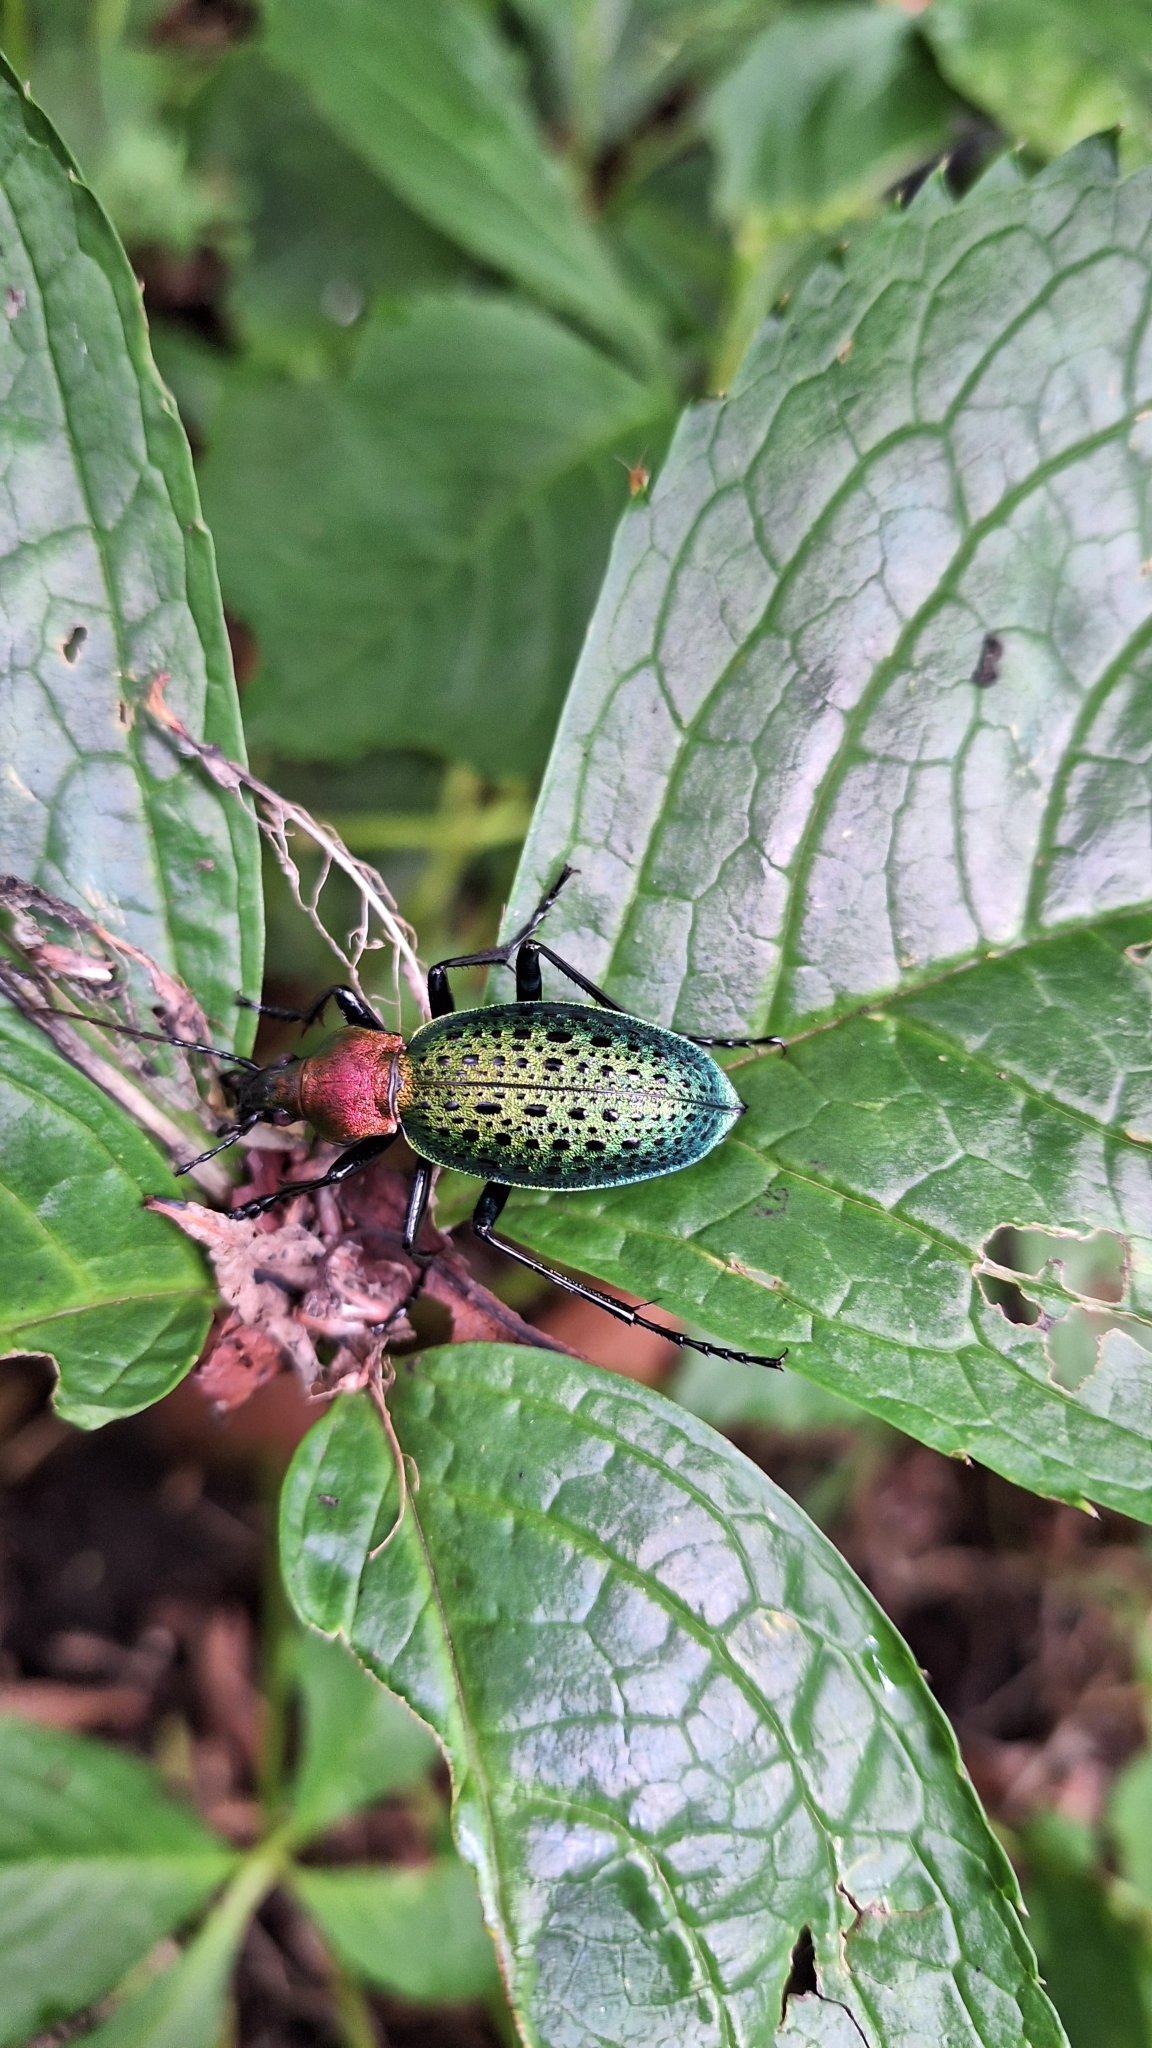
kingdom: Animalia
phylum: Arthropoda
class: Insecta
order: Coleoptera
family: Carabidae
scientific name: Carabidae
